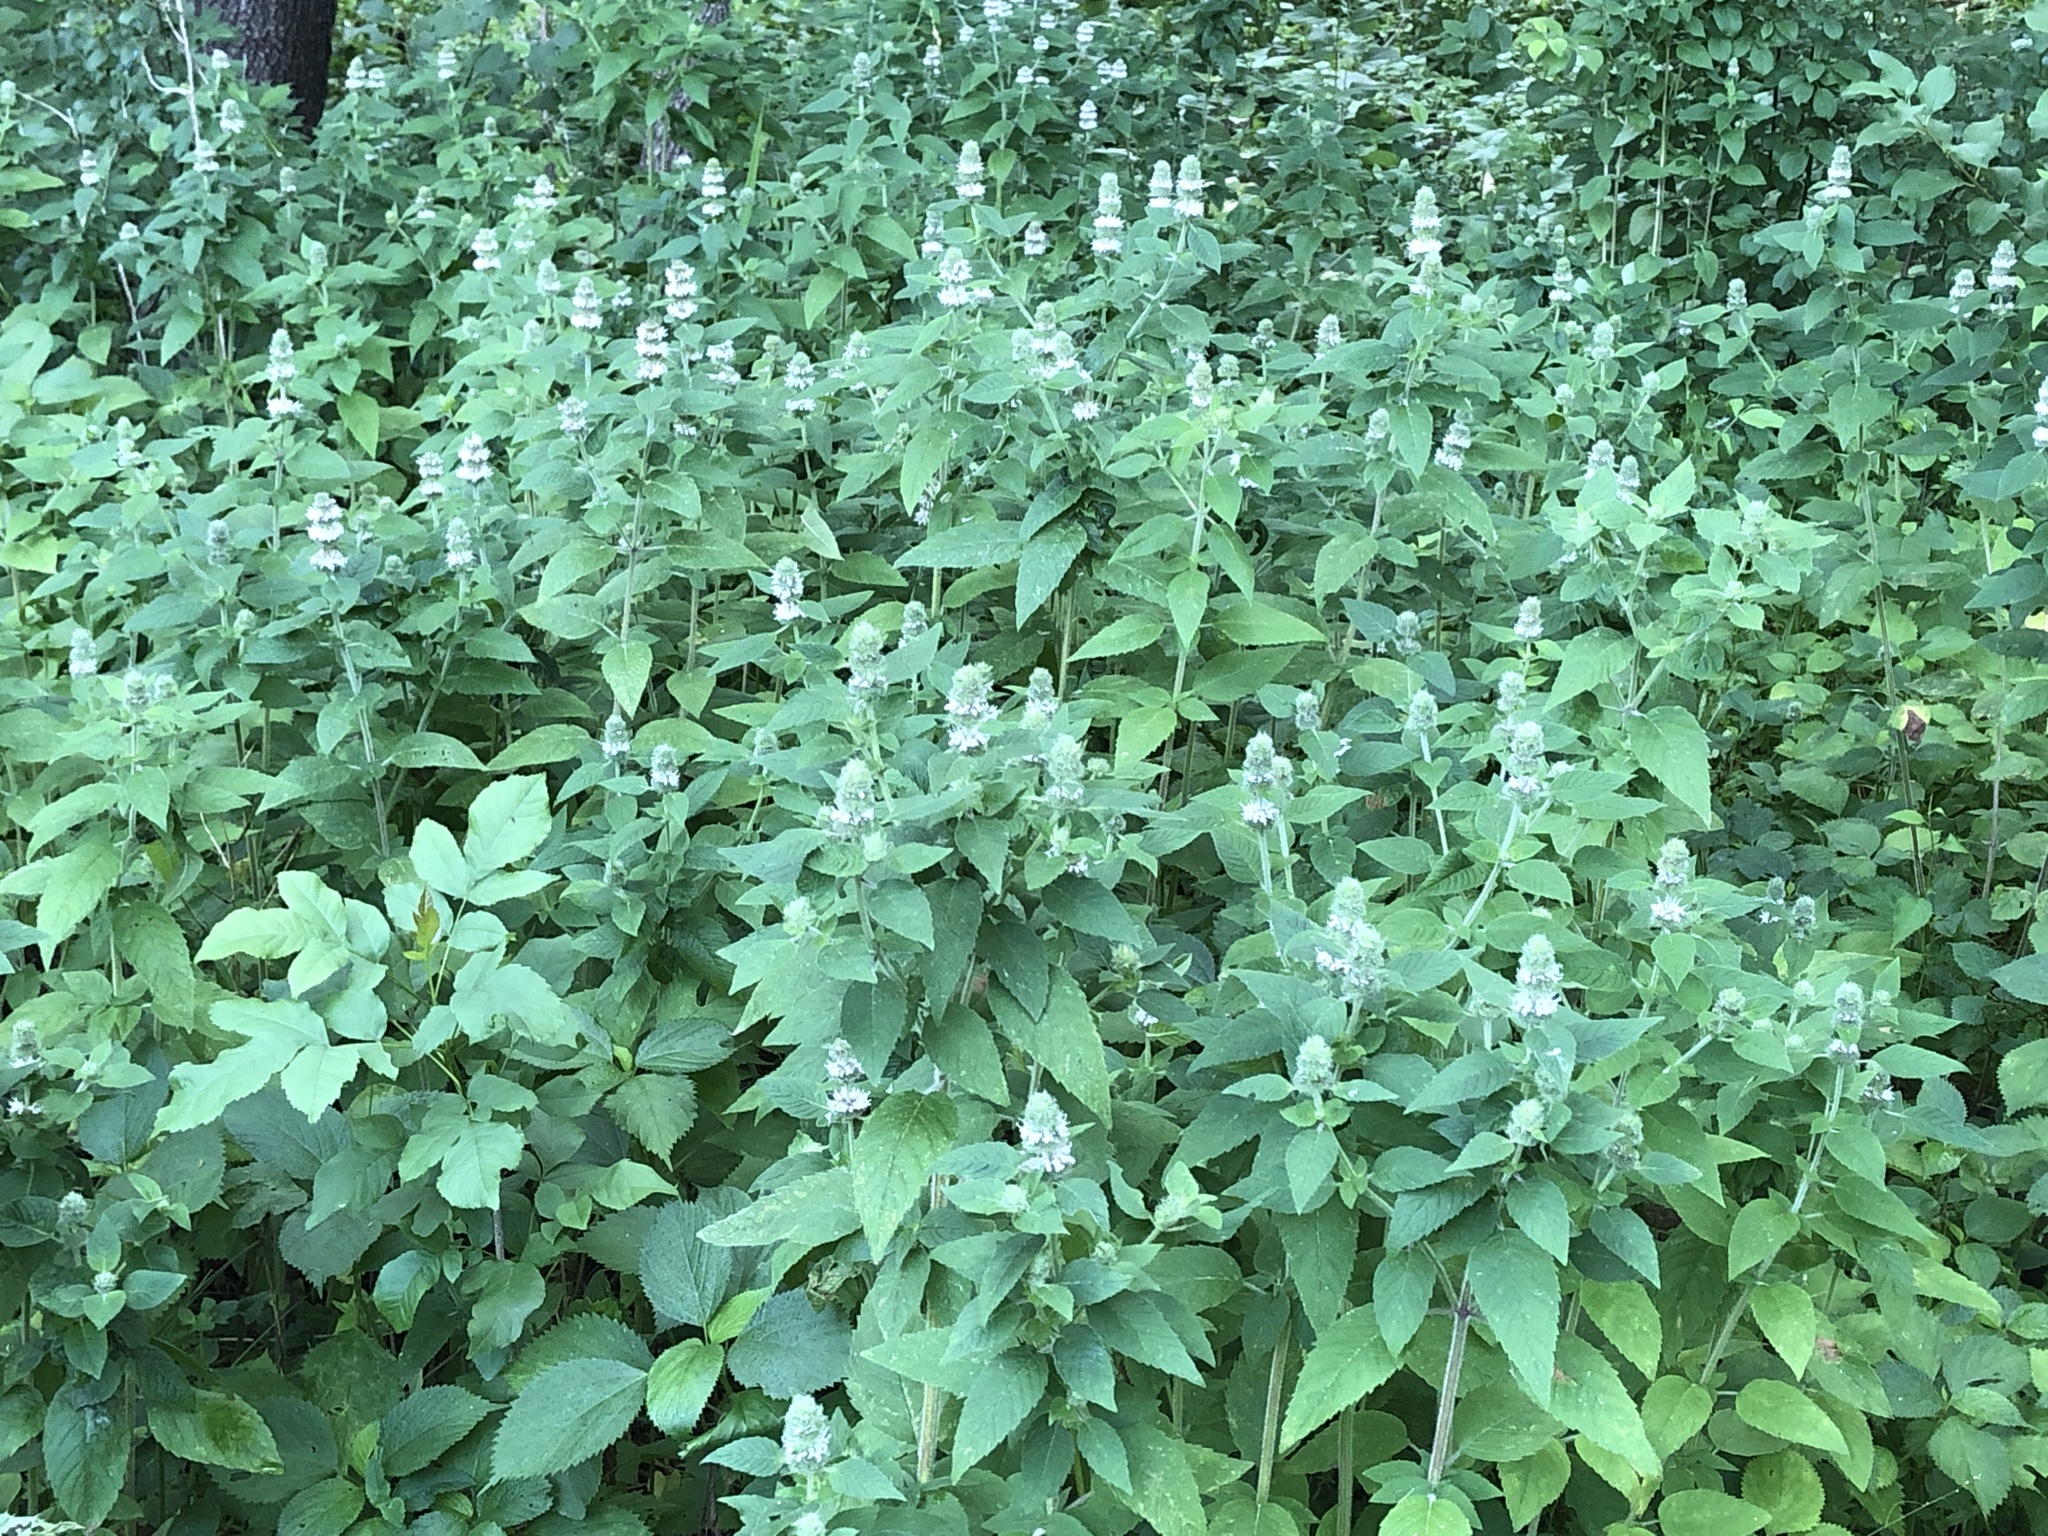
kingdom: Plantae
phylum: Tracheophyta
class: Magnoliopsida
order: Lamiales
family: Lamiaceae
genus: Blephilia
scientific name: Blephilia hirsuta
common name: Hairy blephilia
